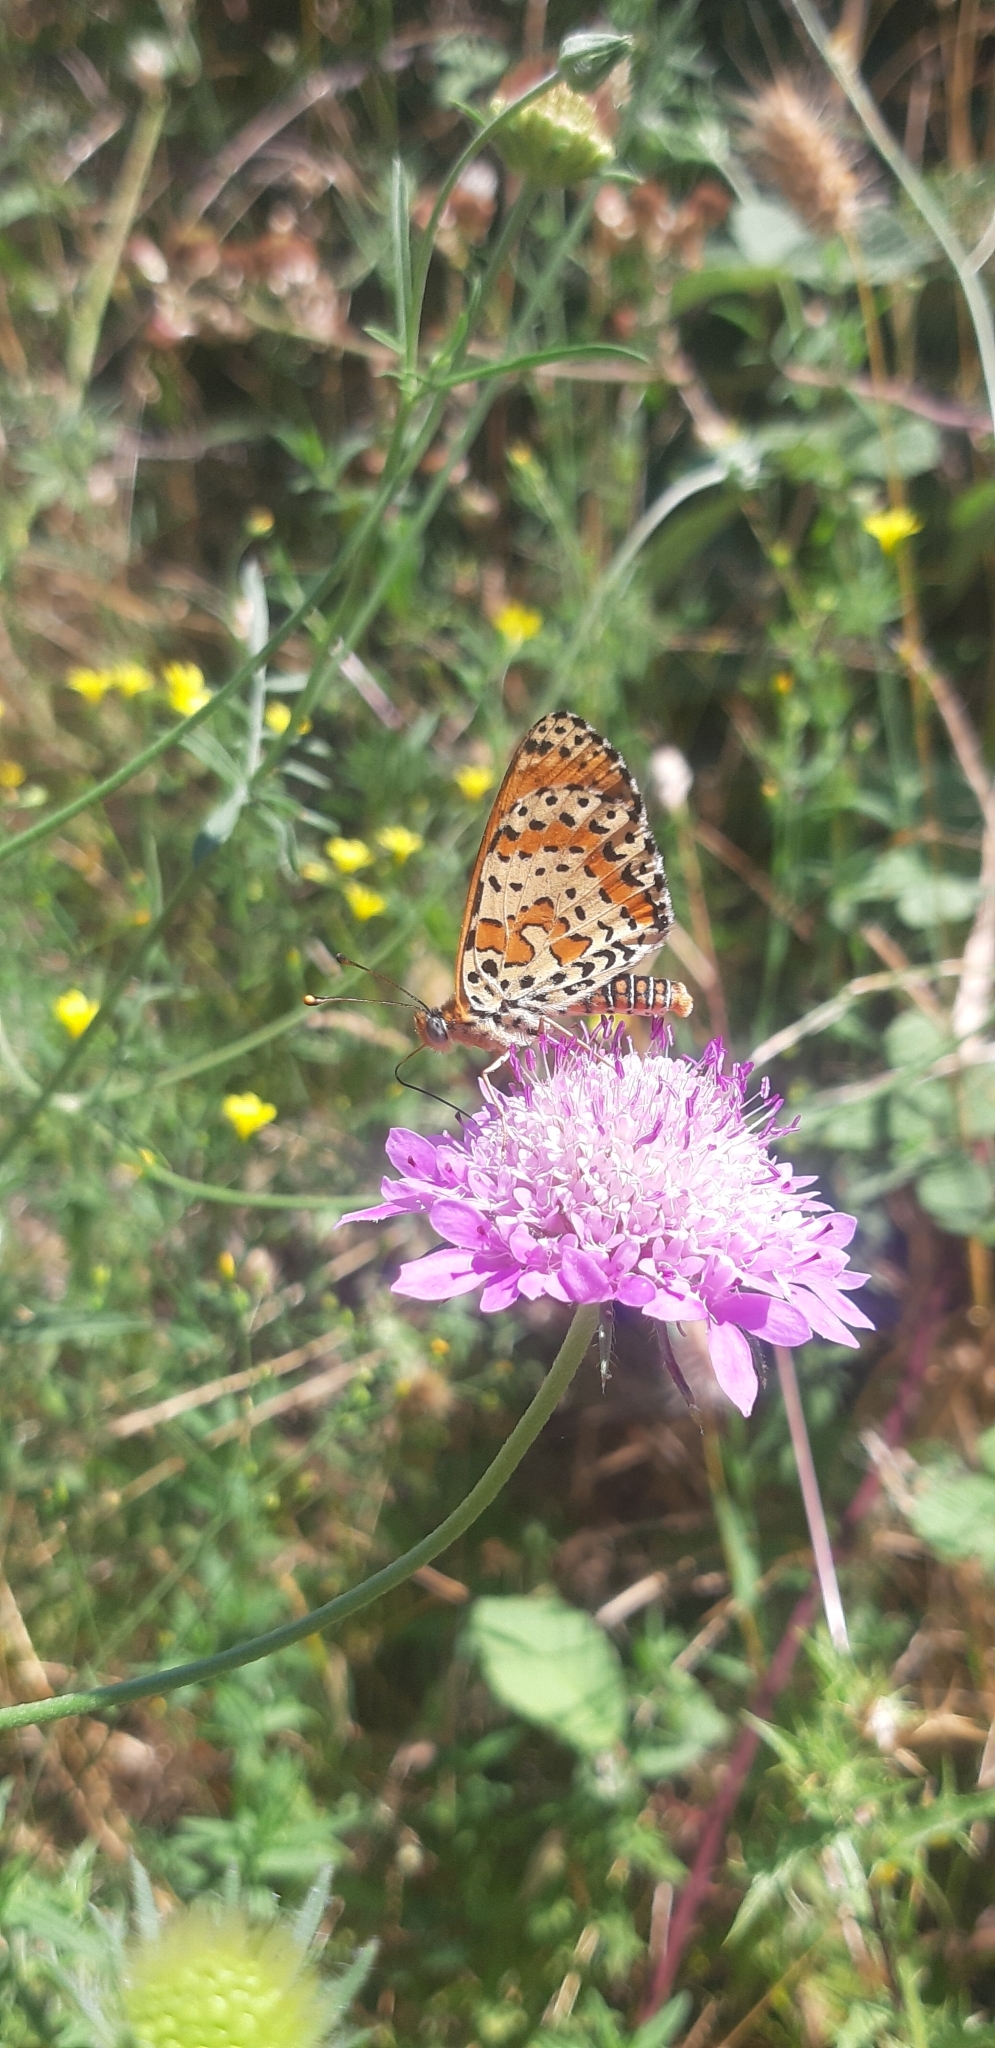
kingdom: Animalia
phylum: Arthropoda
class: Insecta
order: Lepidoptera
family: Nymphalidae
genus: Melitaea
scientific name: Melitaea didyma
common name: Spotted fritillary
